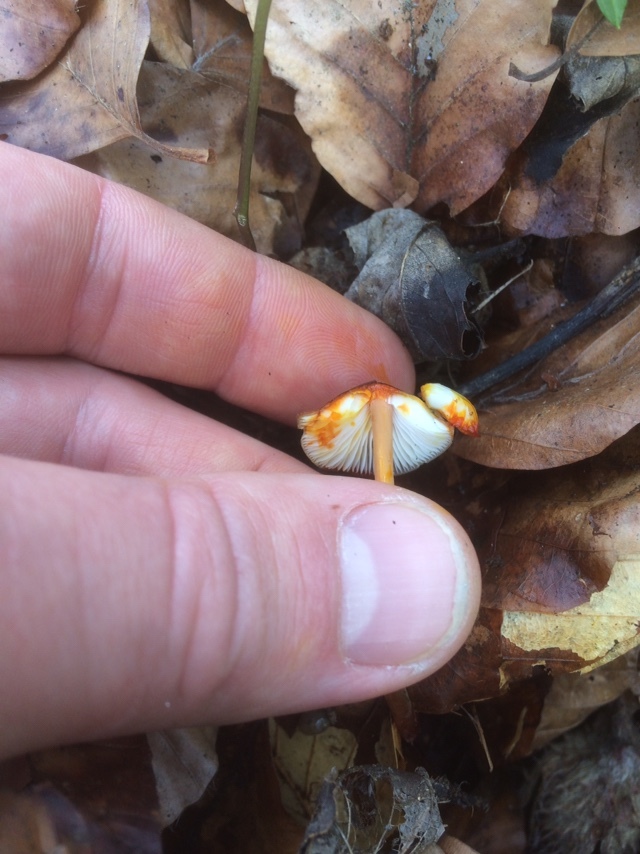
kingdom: Fungi
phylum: Basidiomycota
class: Agaricomycetes
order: Agaricales
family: Mycenaceae
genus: Mycena
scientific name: Mycena crocata
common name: Saffrondrop bonnet
